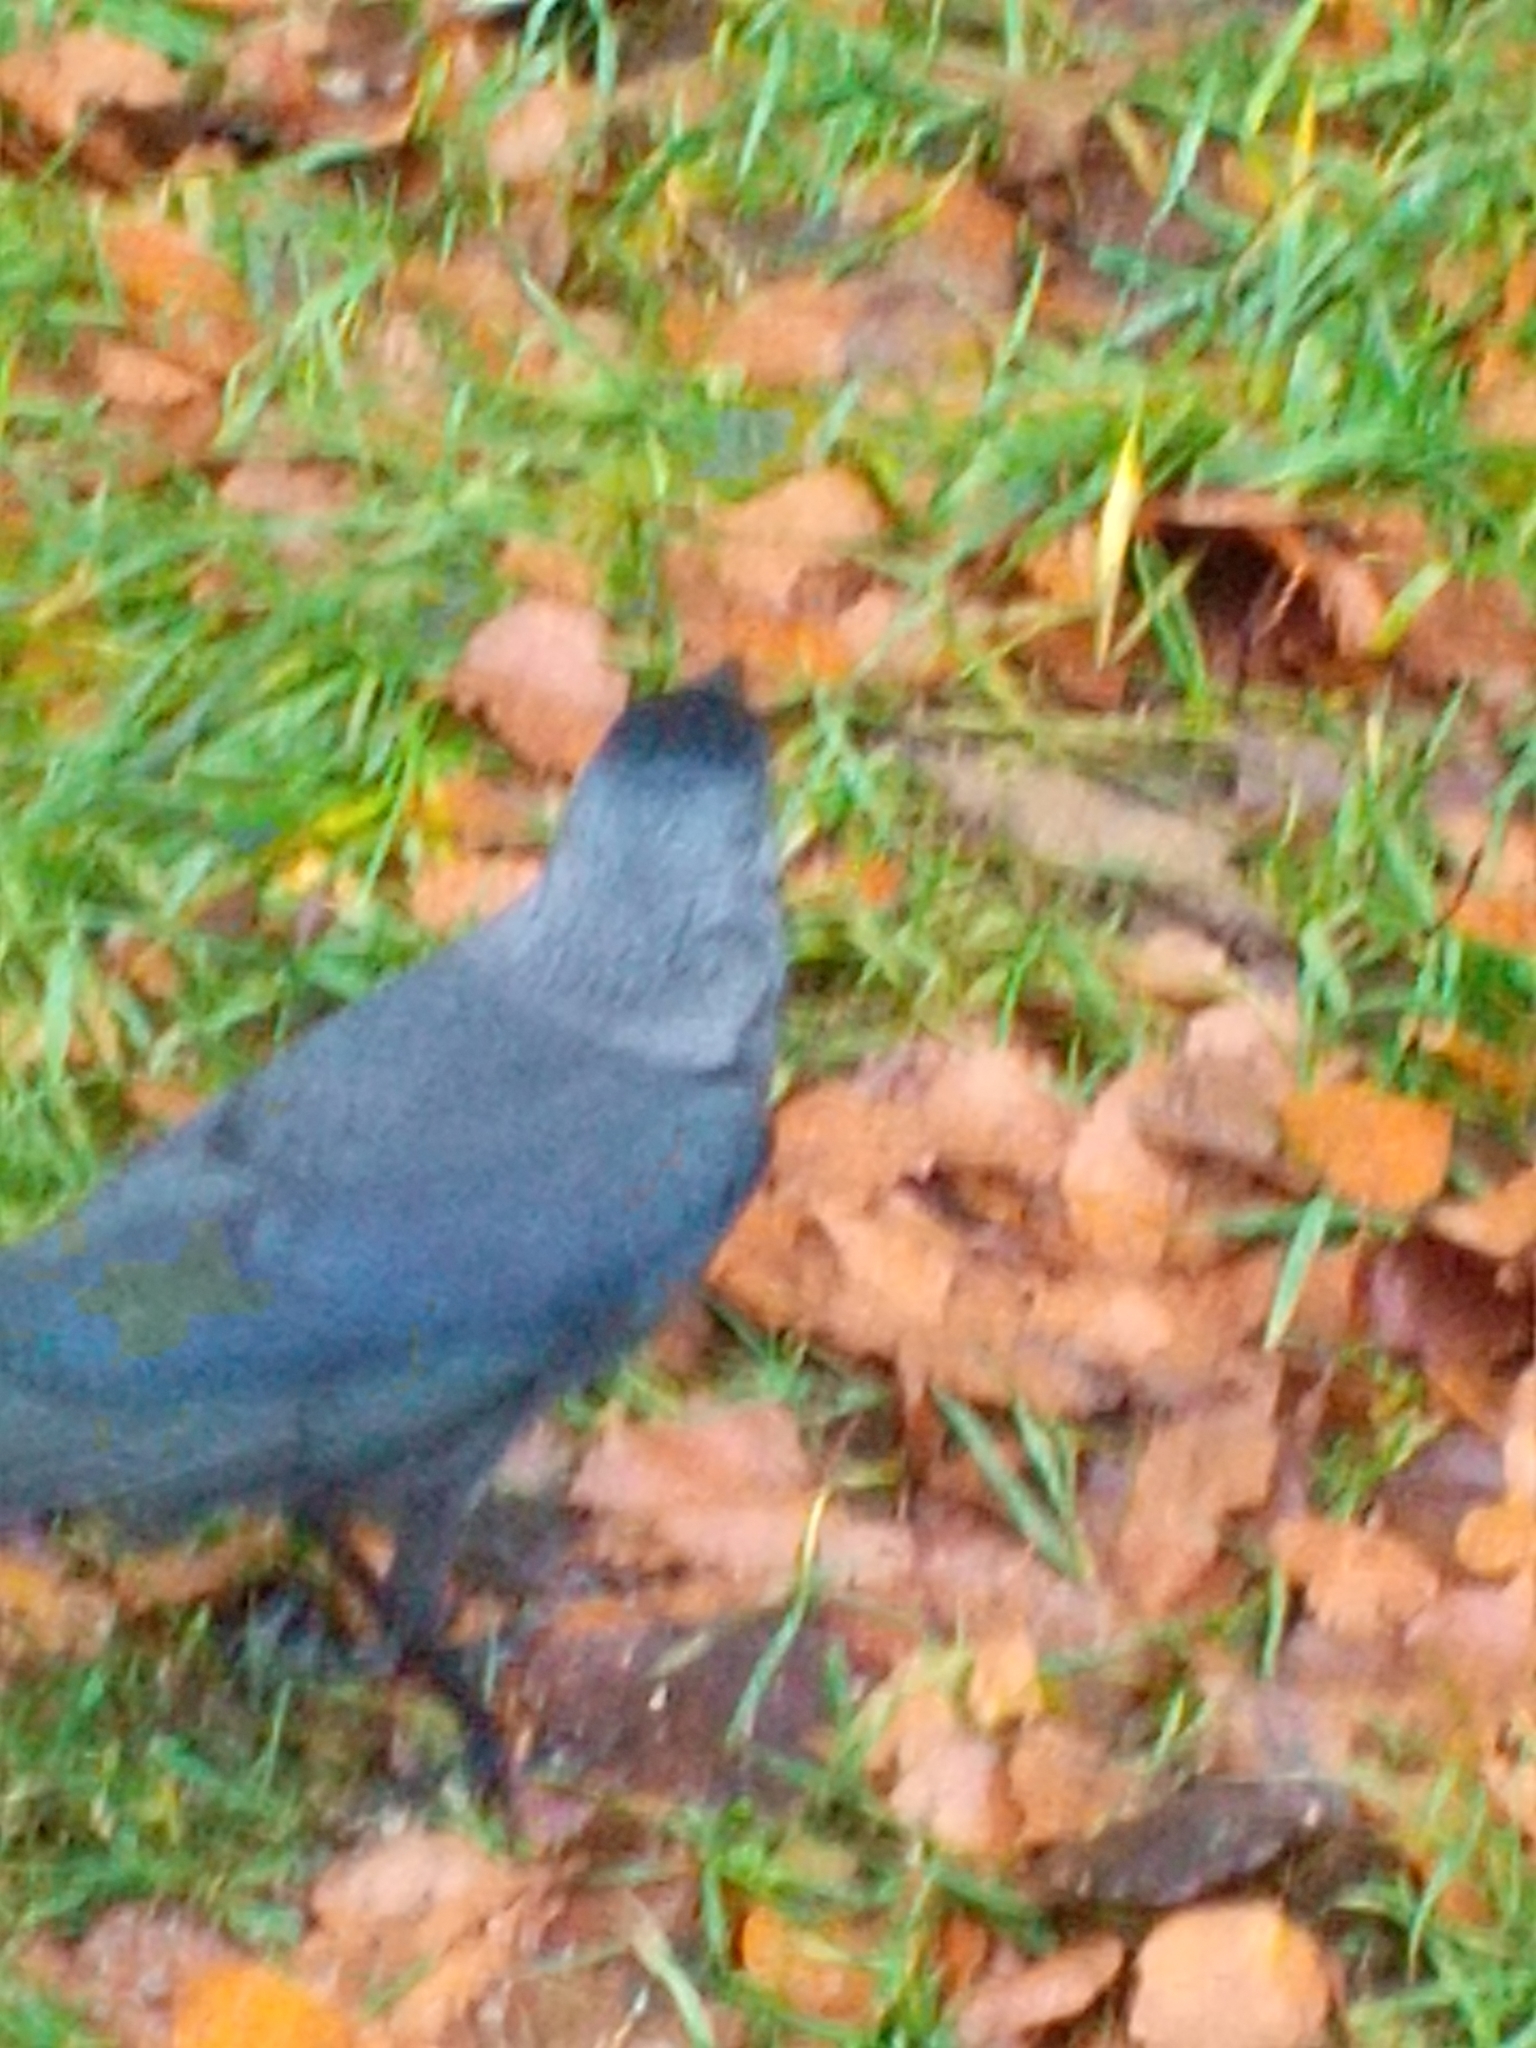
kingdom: Animalia
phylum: Chordata
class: Aves
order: Passeriformes
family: Corvidae
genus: Coloeus
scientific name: Coloeus monedula
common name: Western jackdaw
